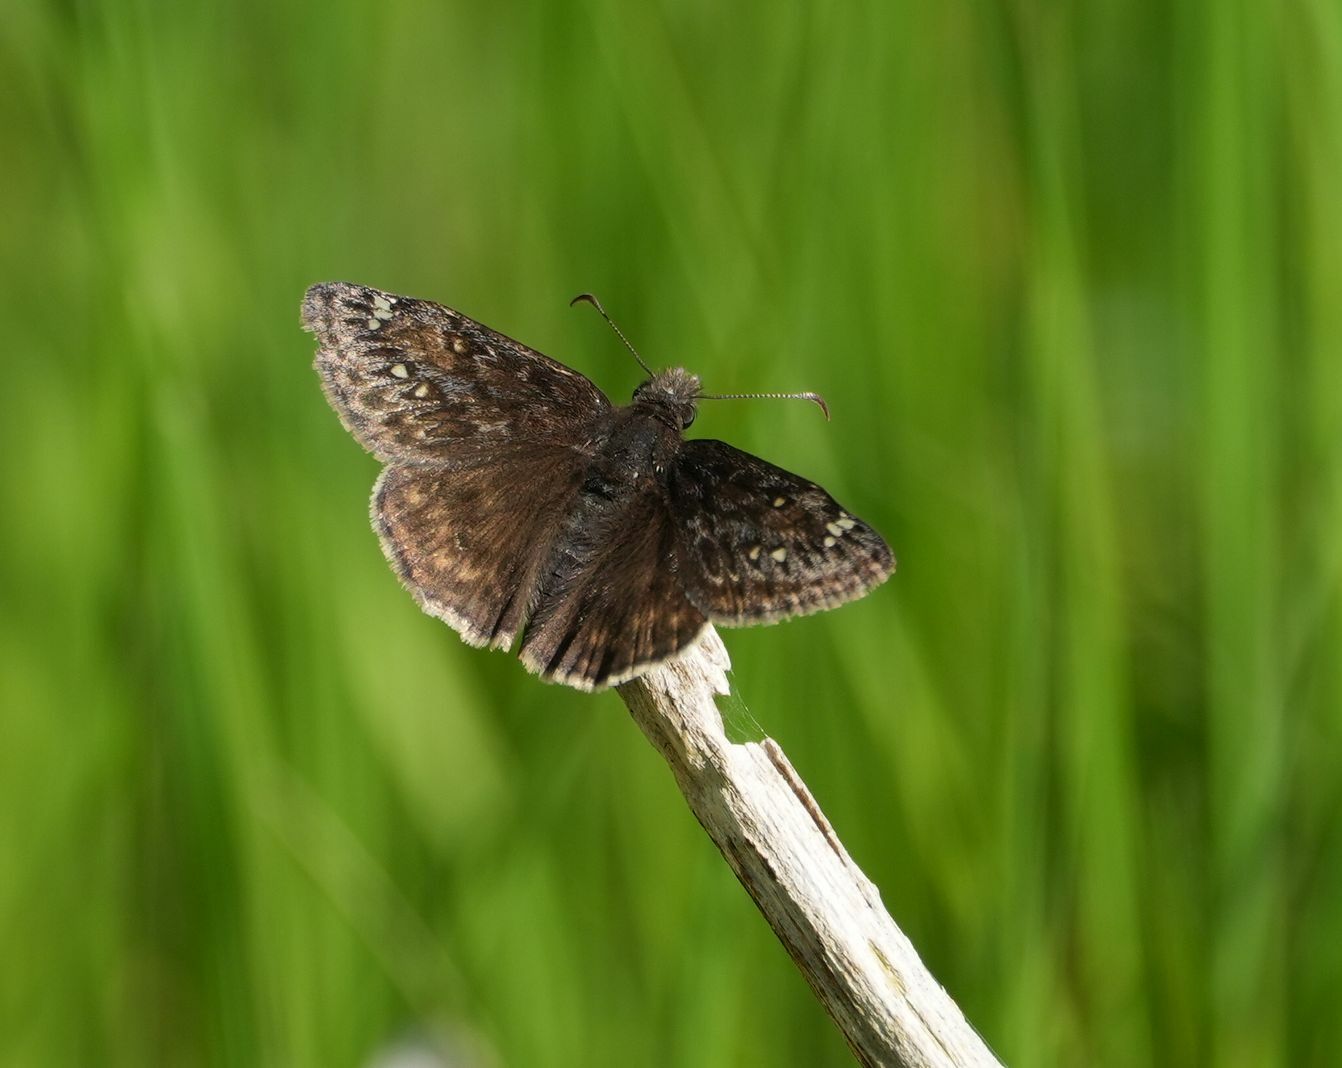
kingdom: Animalia
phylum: Arthropoda
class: Insecta
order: Lepidoptera
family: Hesperiidae
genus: Erynnis
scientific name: Erynnis juvenalis
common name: Juvenal's duskywing
